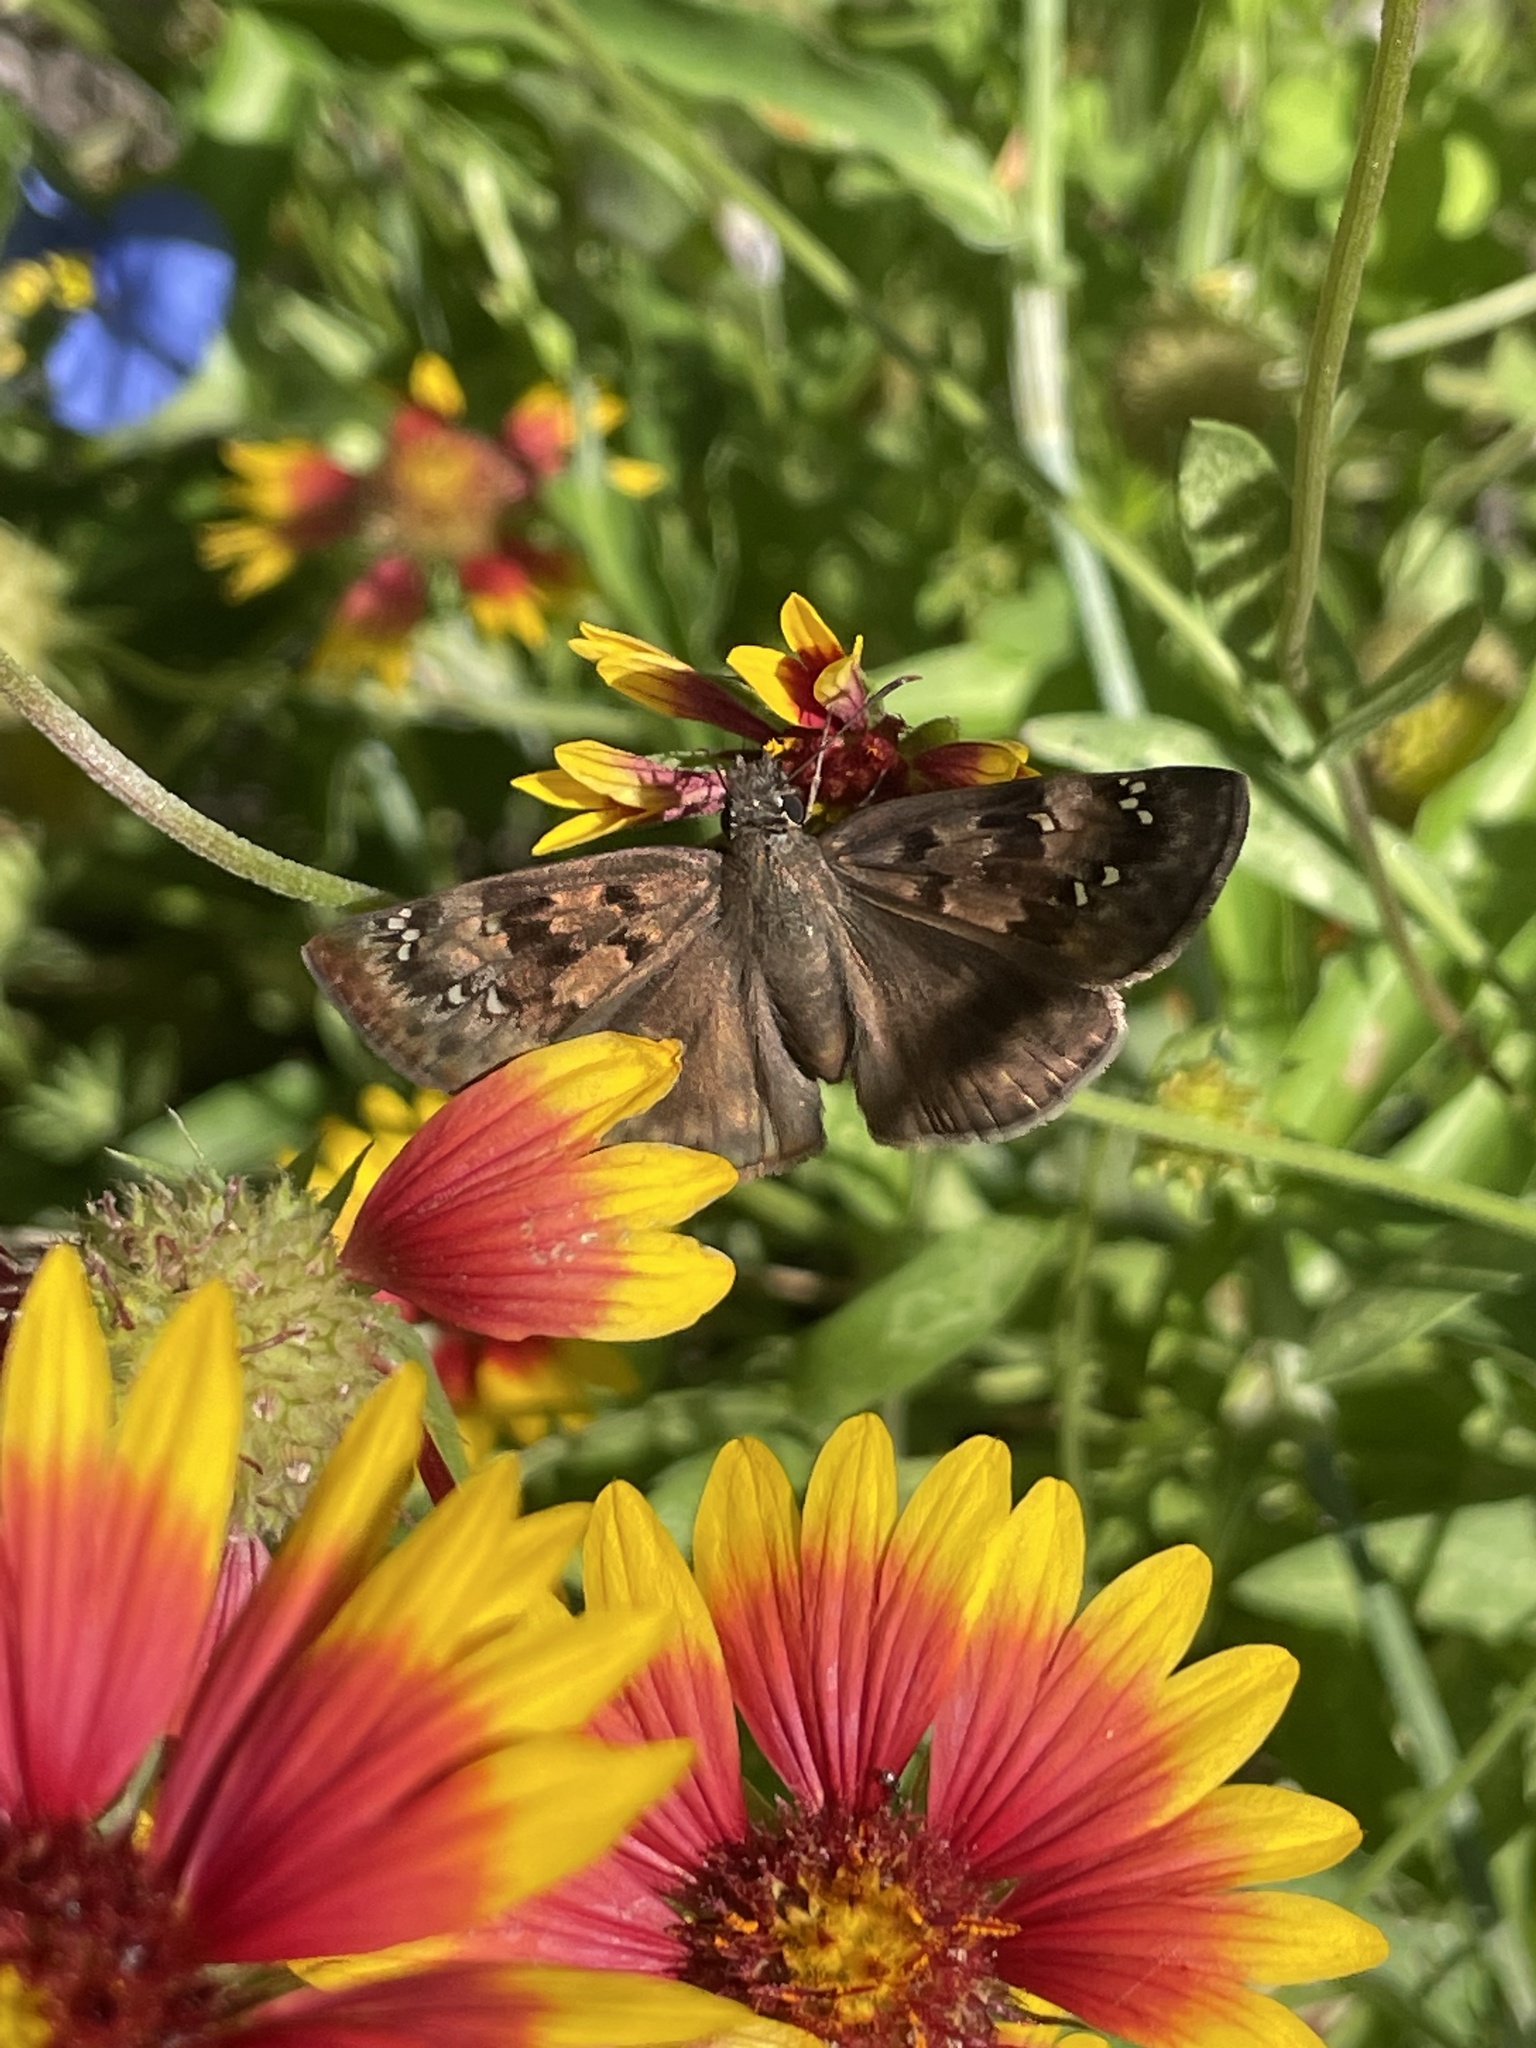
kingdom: Animalia
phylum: Arthropoda
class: Insecta
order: Lepidoptera
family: Hesperiidae
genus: Erynnis
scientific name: Erynnis horatius
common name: Horace's duskywing
